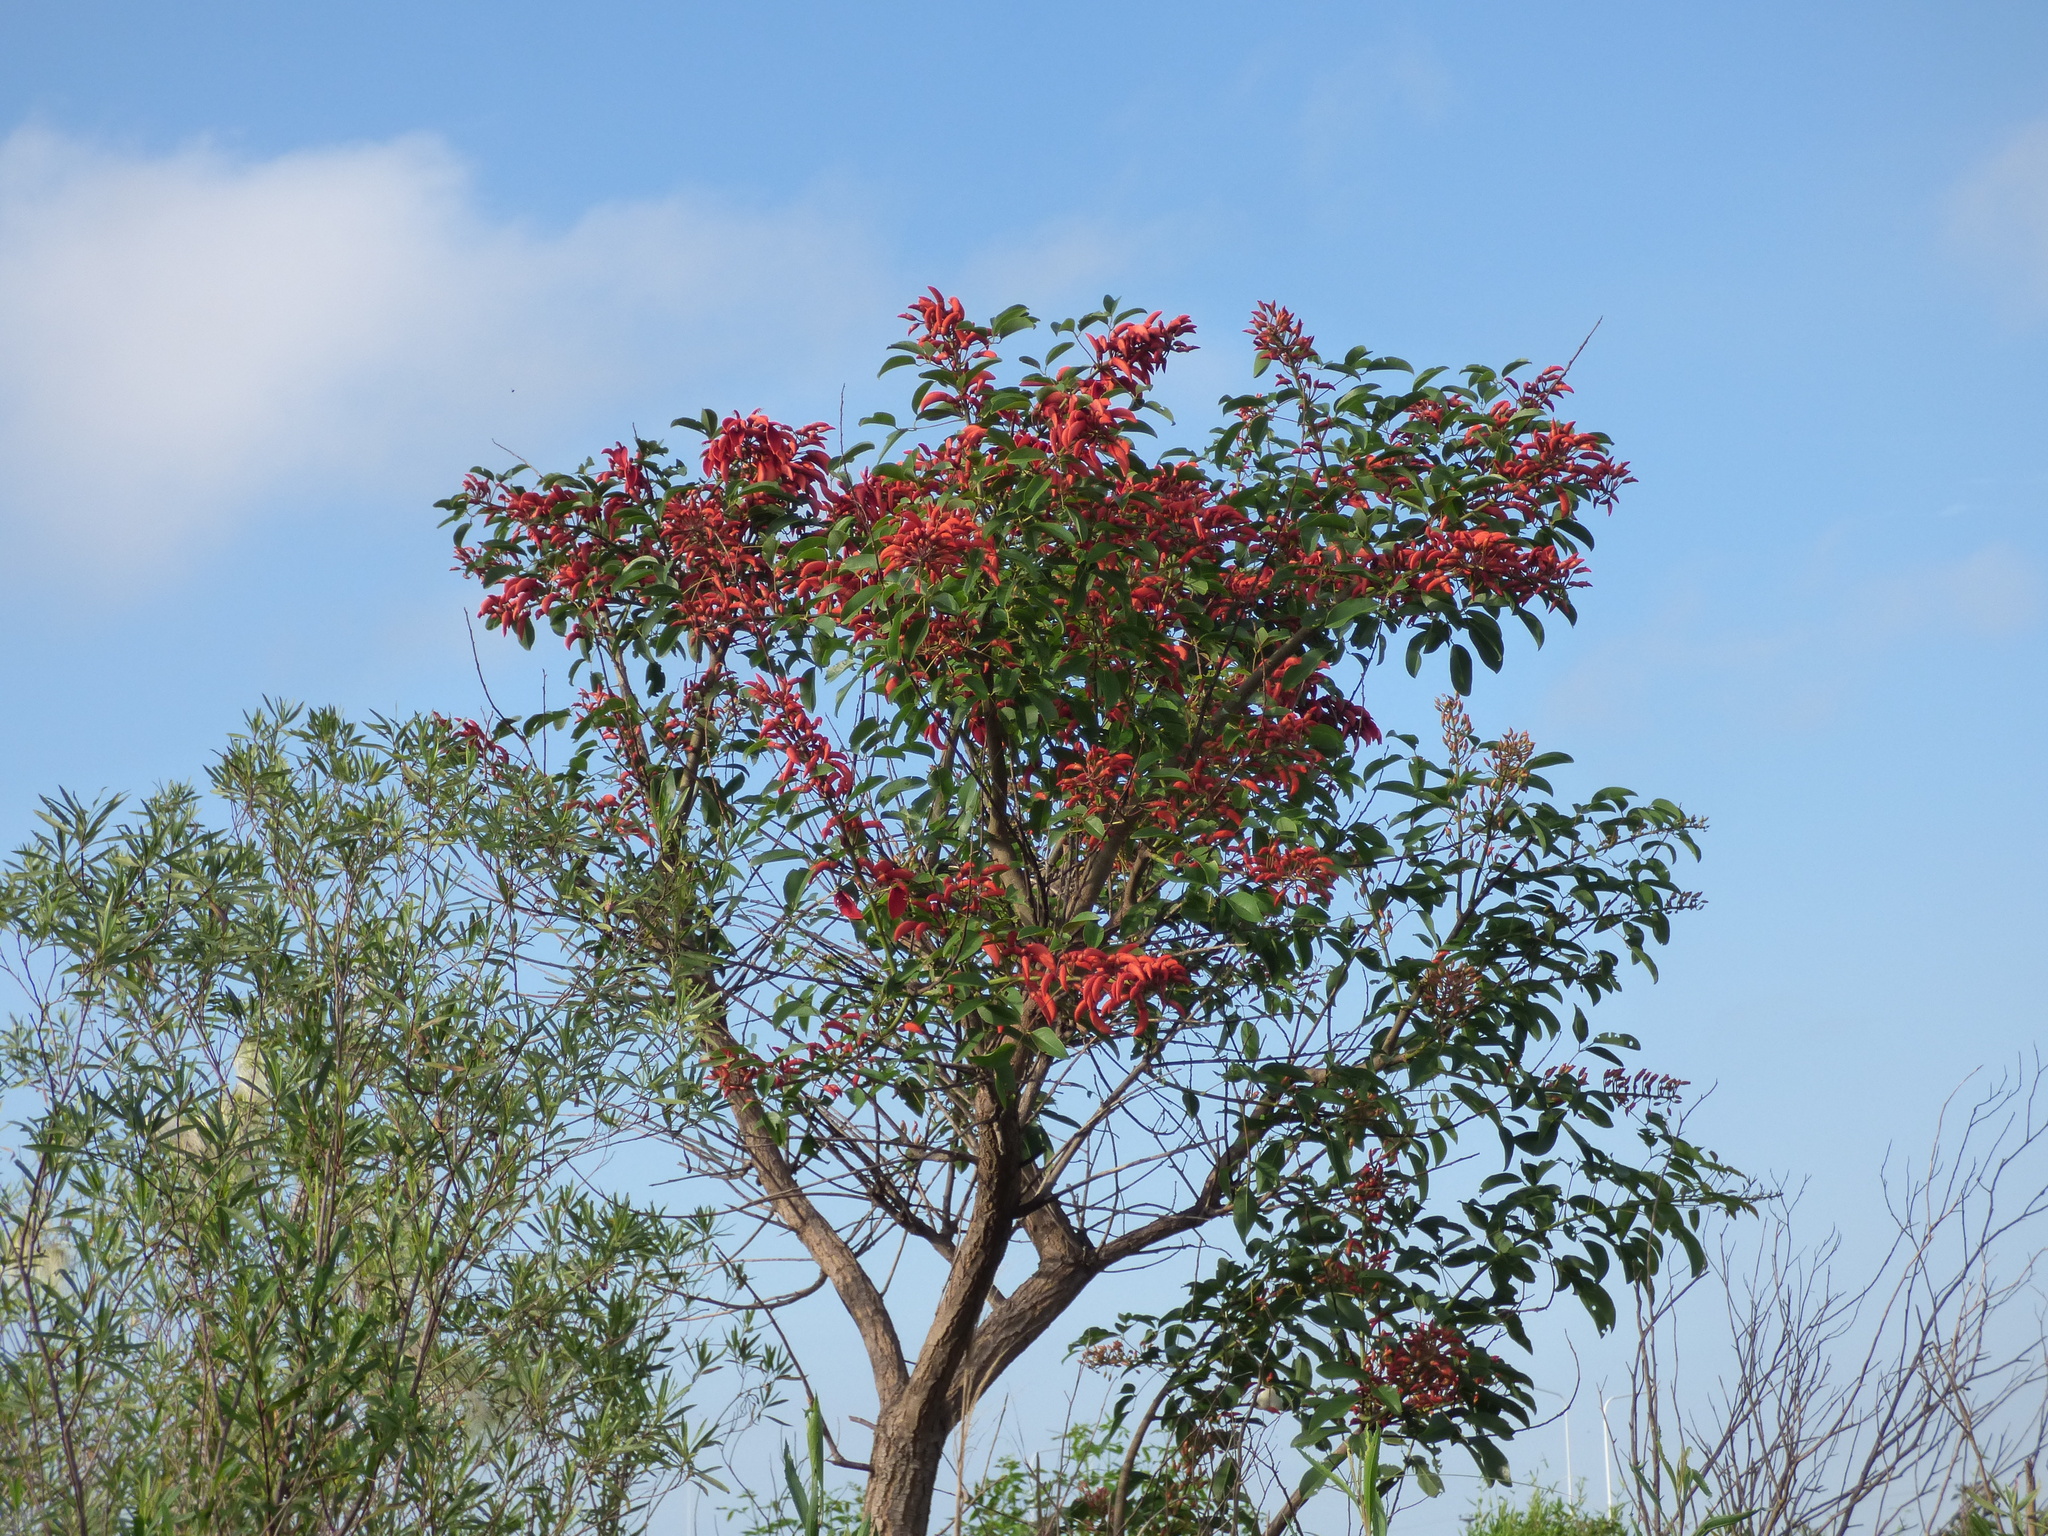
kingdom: Plantae
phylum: Tracheophyta
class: Magnoliopsida
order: Fabales
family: Fabaceae
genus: Erythrina
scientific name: Erythrina crista-galli
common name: Cockspur coral tree
